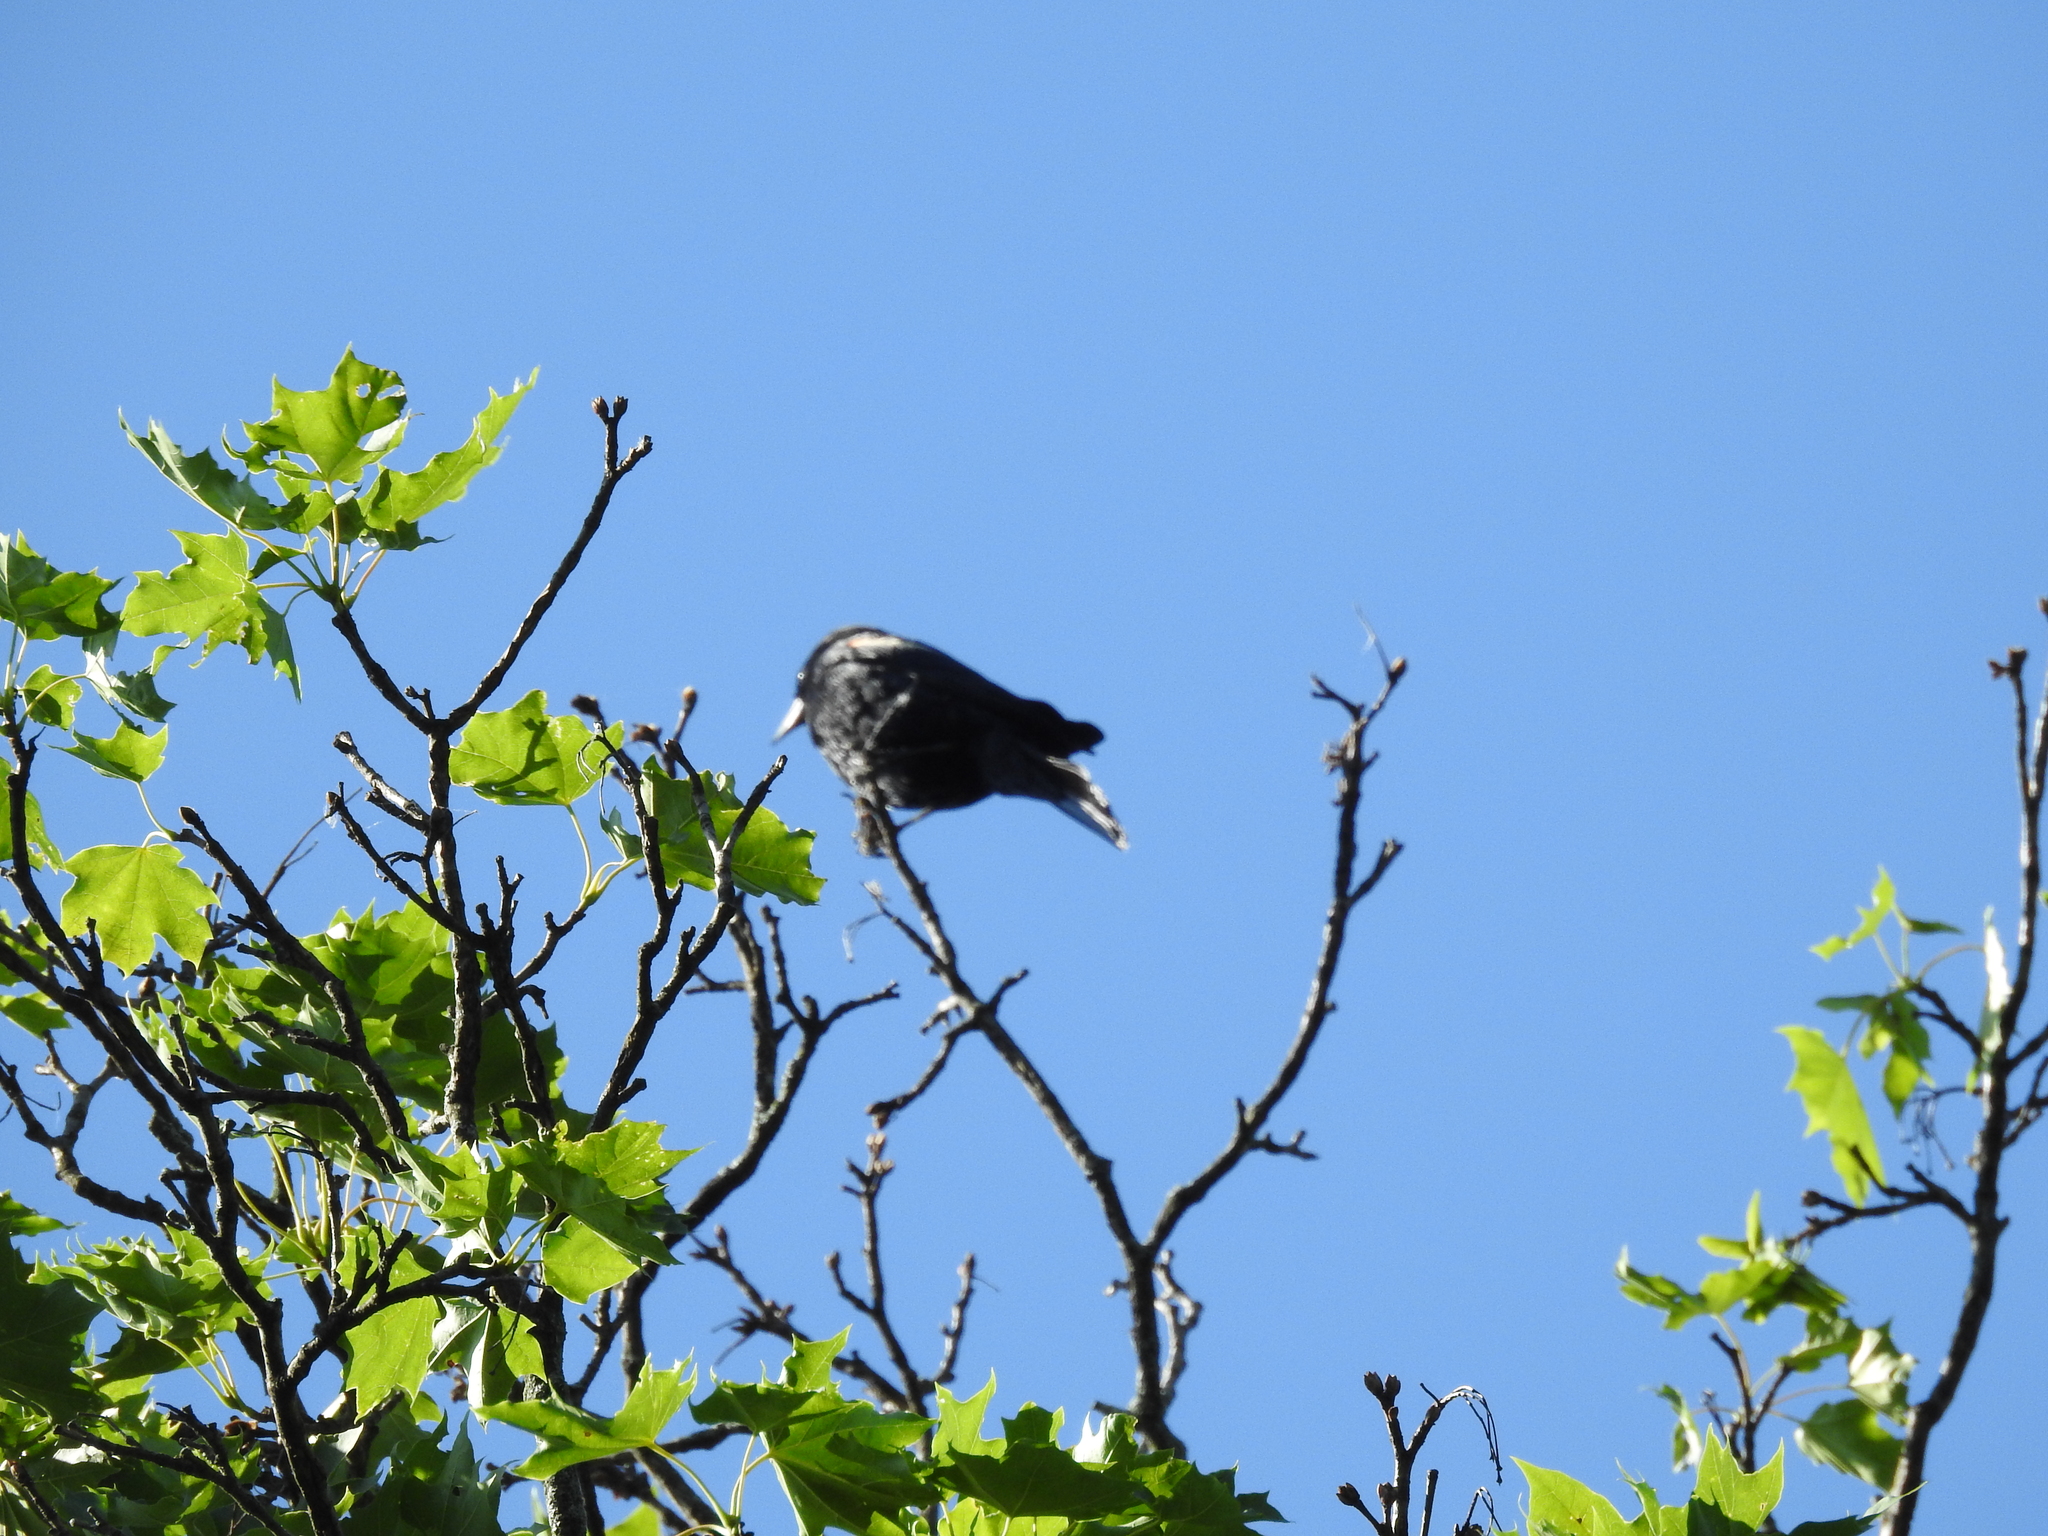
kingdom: Animalia
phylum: Chordata
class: Aves
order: Passeriformes
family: Icteridae
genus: Agelaius
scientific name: Agelaius phoeniceus
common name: Red-winged blackbird
